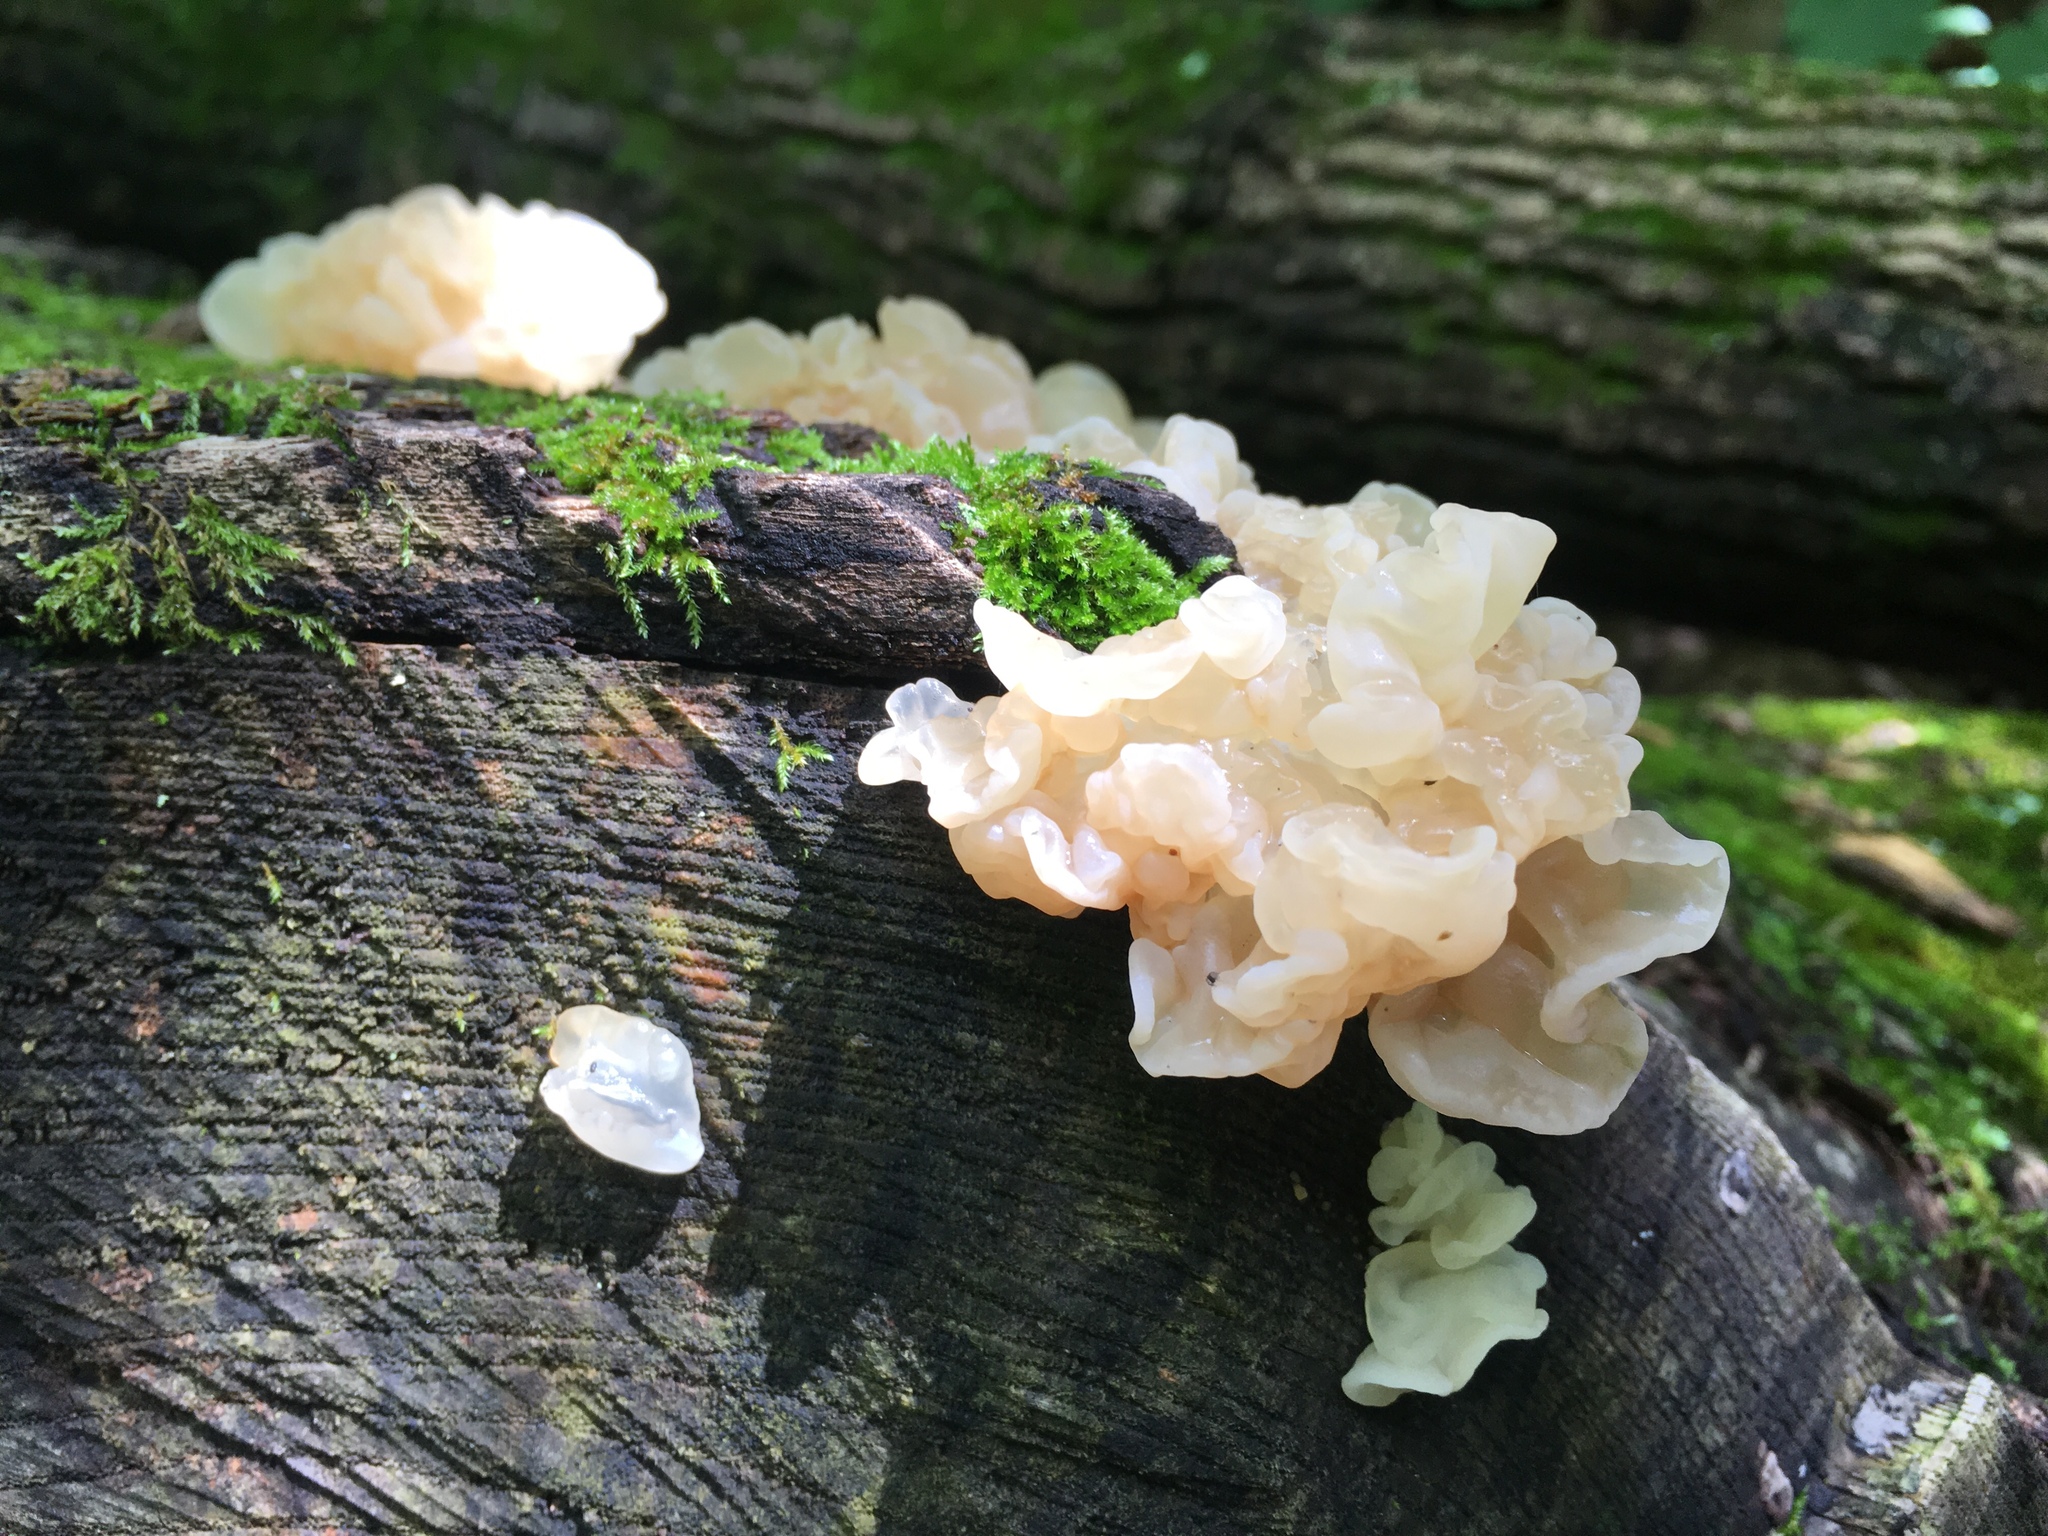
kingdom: Fungi
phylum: Basidiomycota
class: Agaricomycetes
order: Auriculariales
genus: Ductifera
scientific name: Ductifera pululahuana
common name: White jelly fungus
